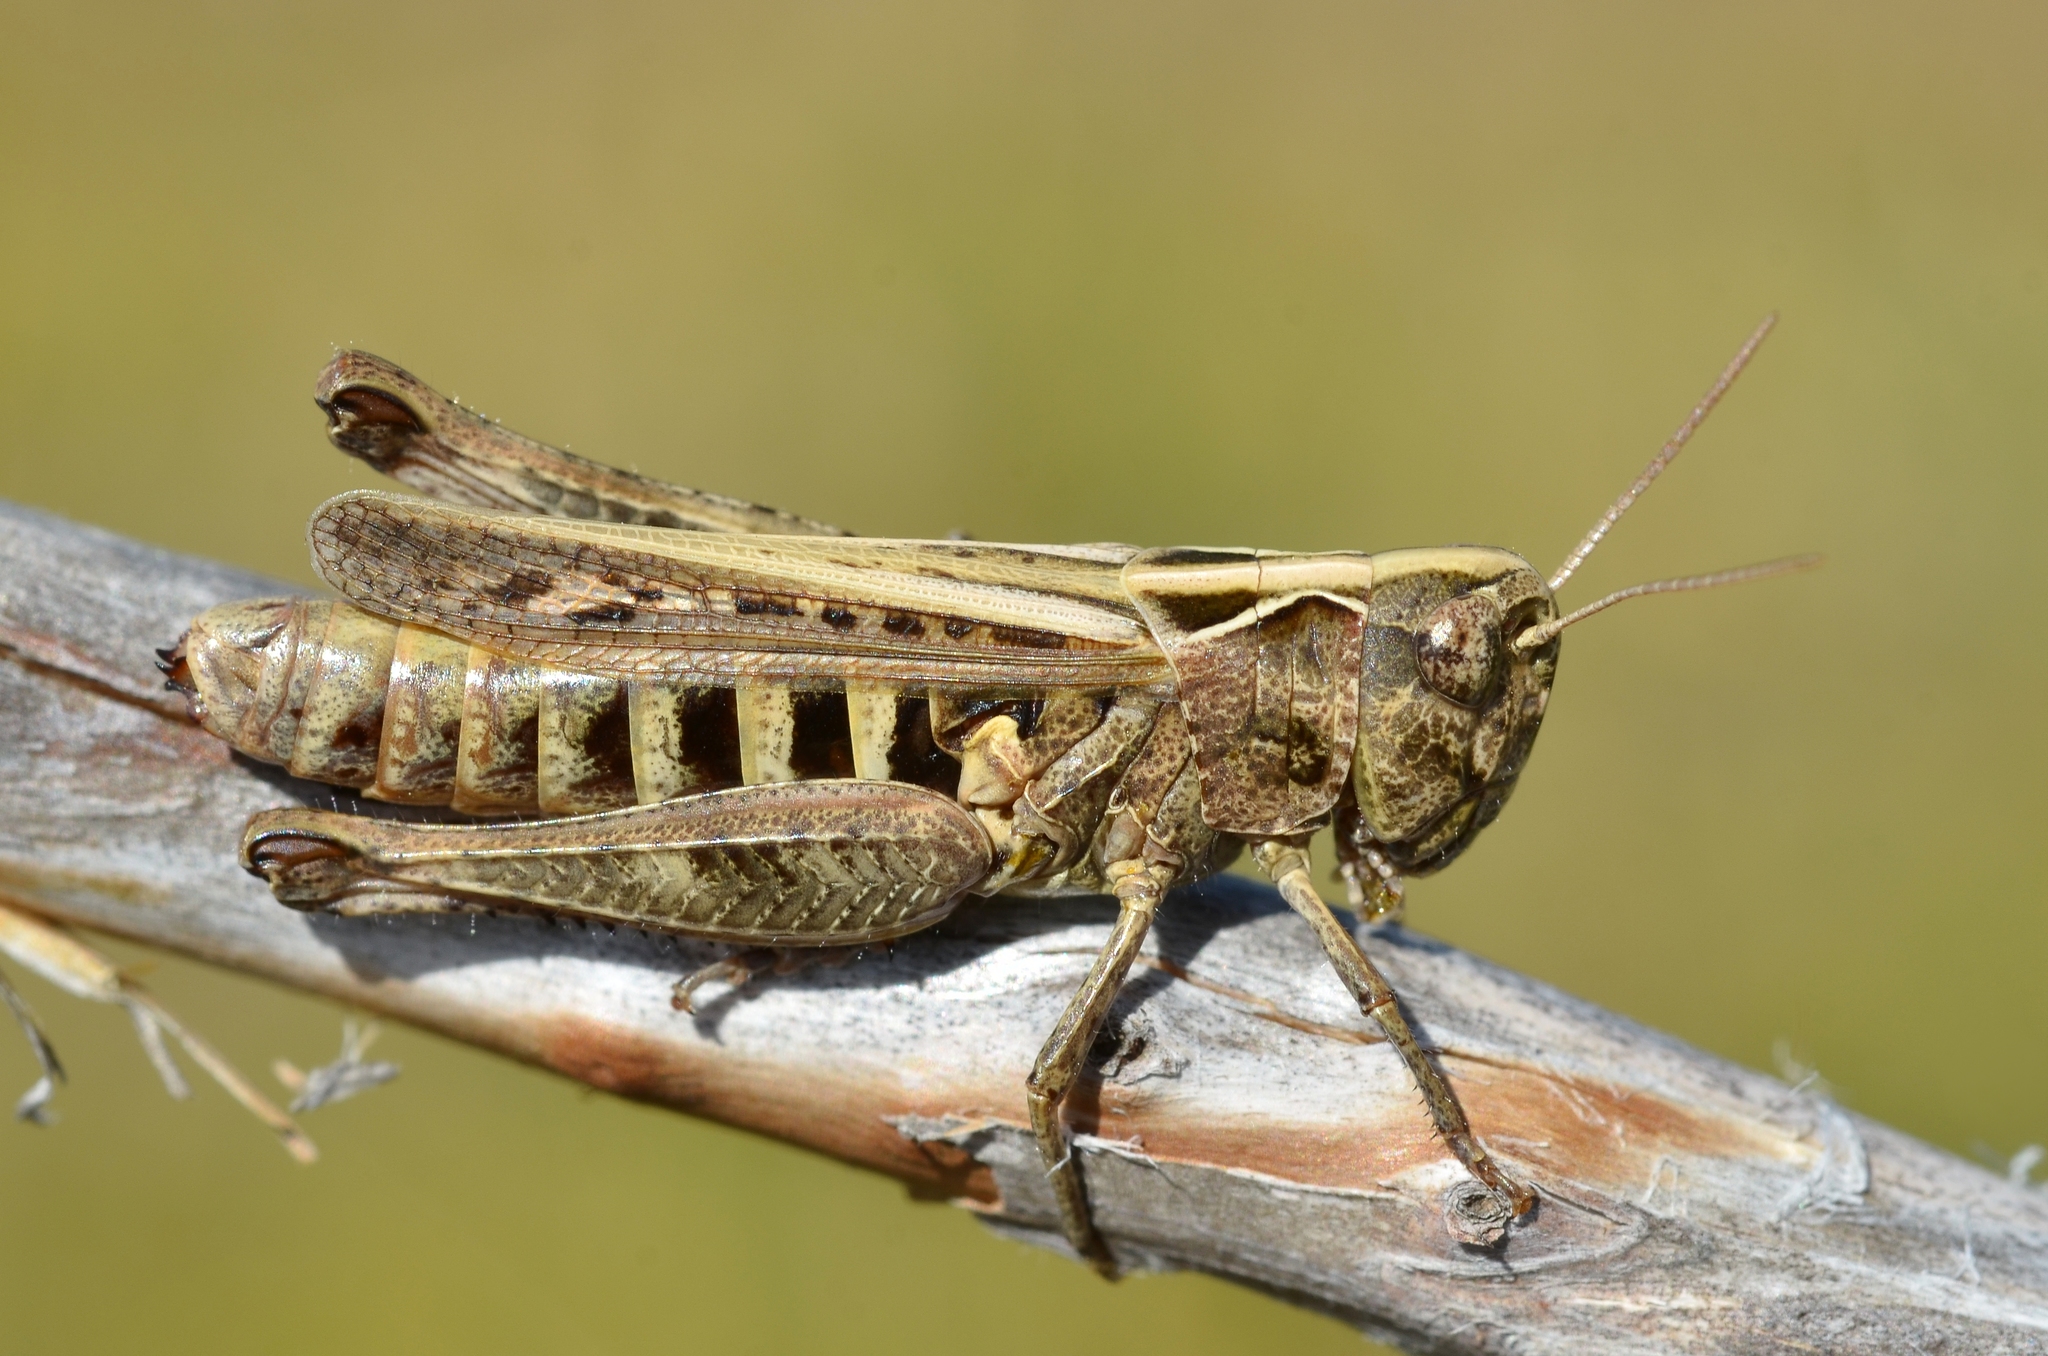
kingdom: Animalia
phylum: Arthropoda
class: Insecta
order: Orthoptera
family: Acrididae
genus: Omocestus
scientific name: Omocestus haemorrhoidalis
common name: Orange-tipped grasshopper
